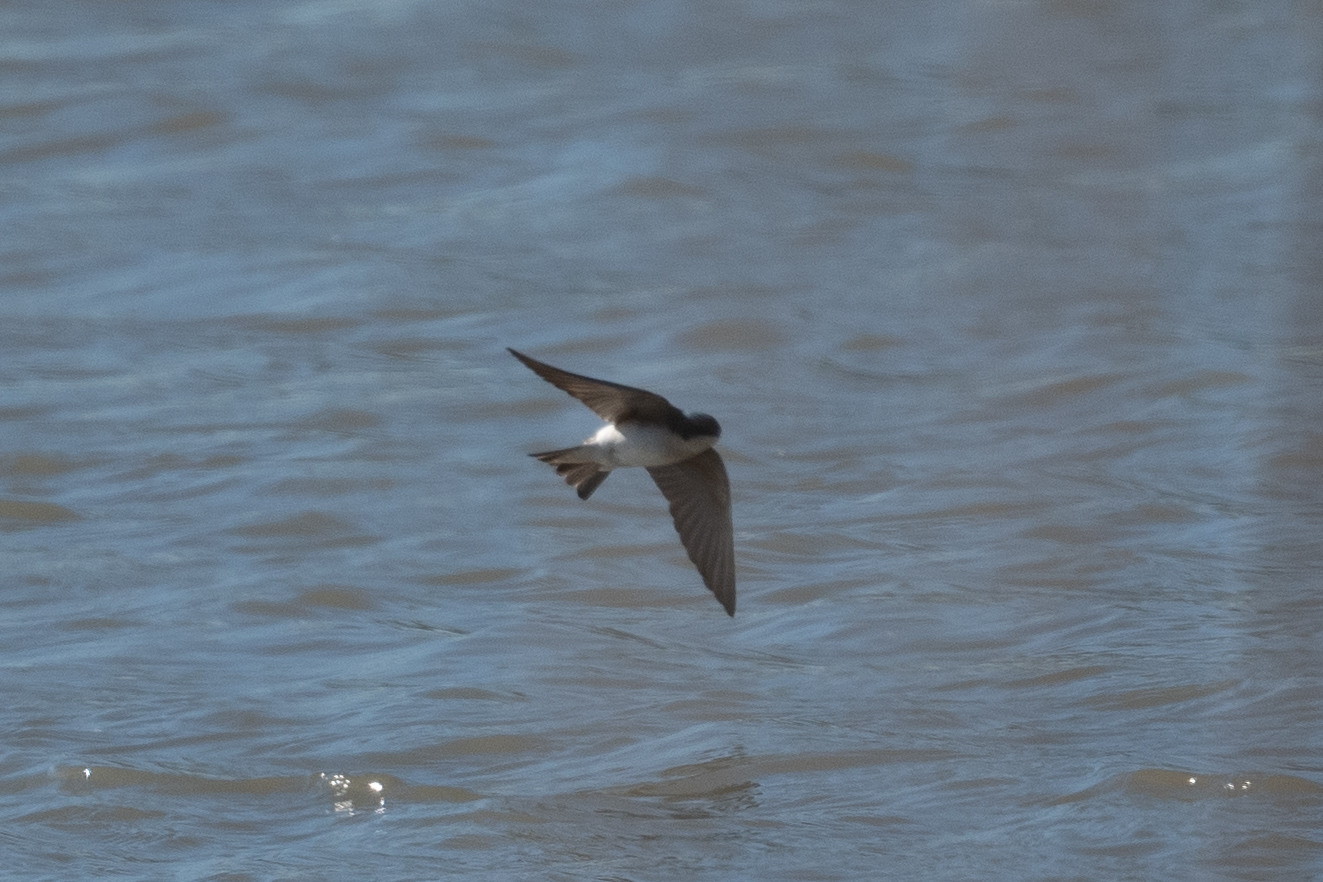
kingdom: Animalia
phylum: Chordata
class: Aves
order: Passeriformes
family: Hirundinidae
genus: Tachycineta
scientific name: Tachycineta bicolor
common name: Tree swallow
